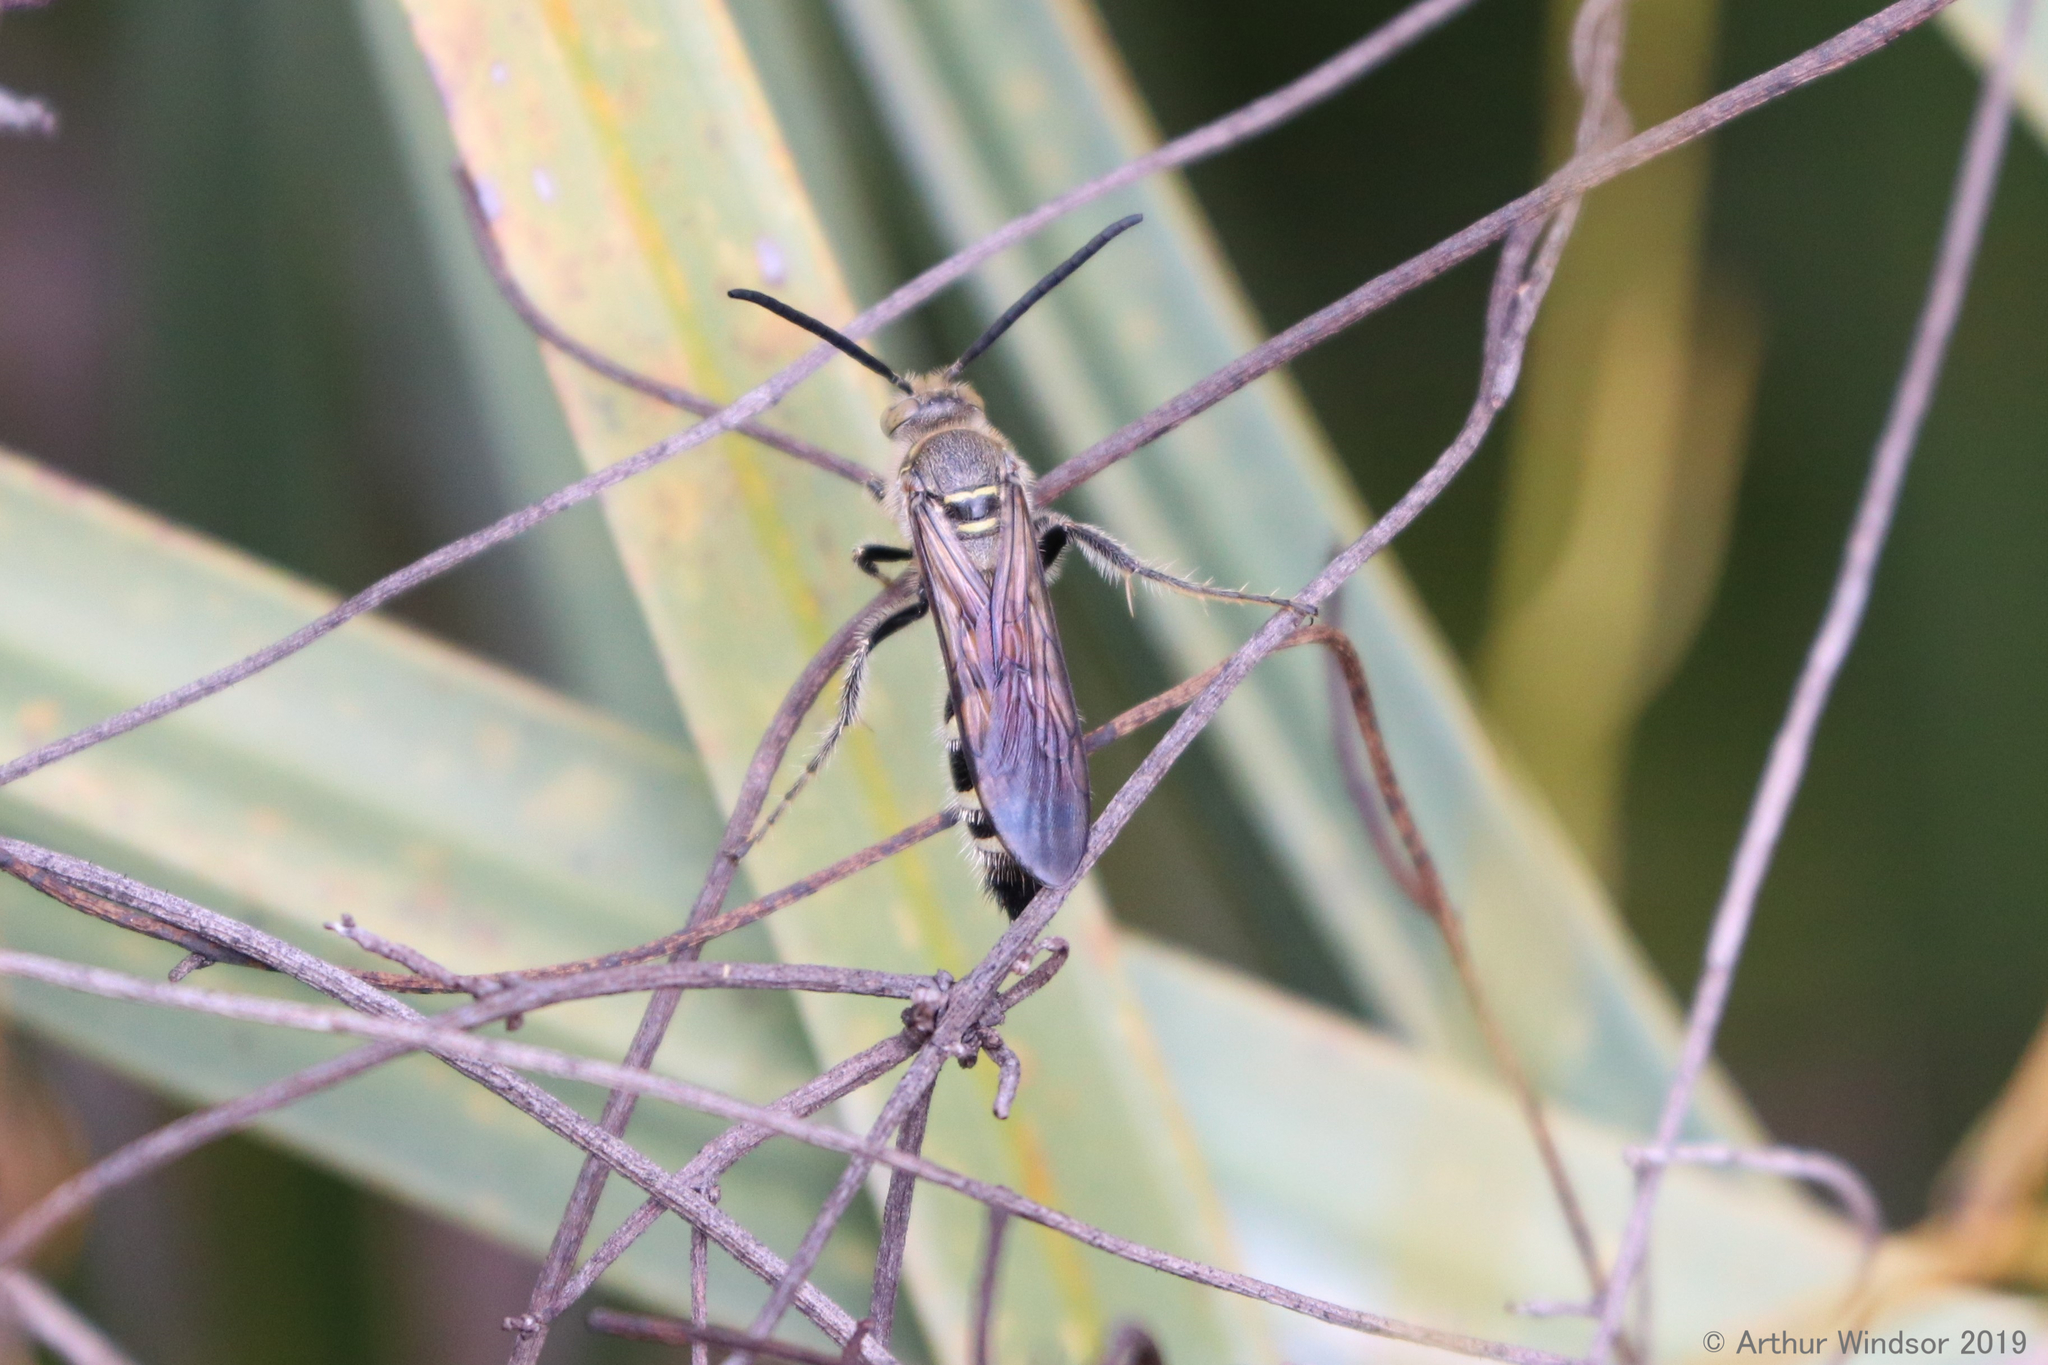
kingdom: Animalia
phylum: Arthropoda
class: Insecta
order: Hymenoptera
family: Scoliidae
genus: Dielis
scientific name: Dielis dorsata
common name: Scoliid wasp
